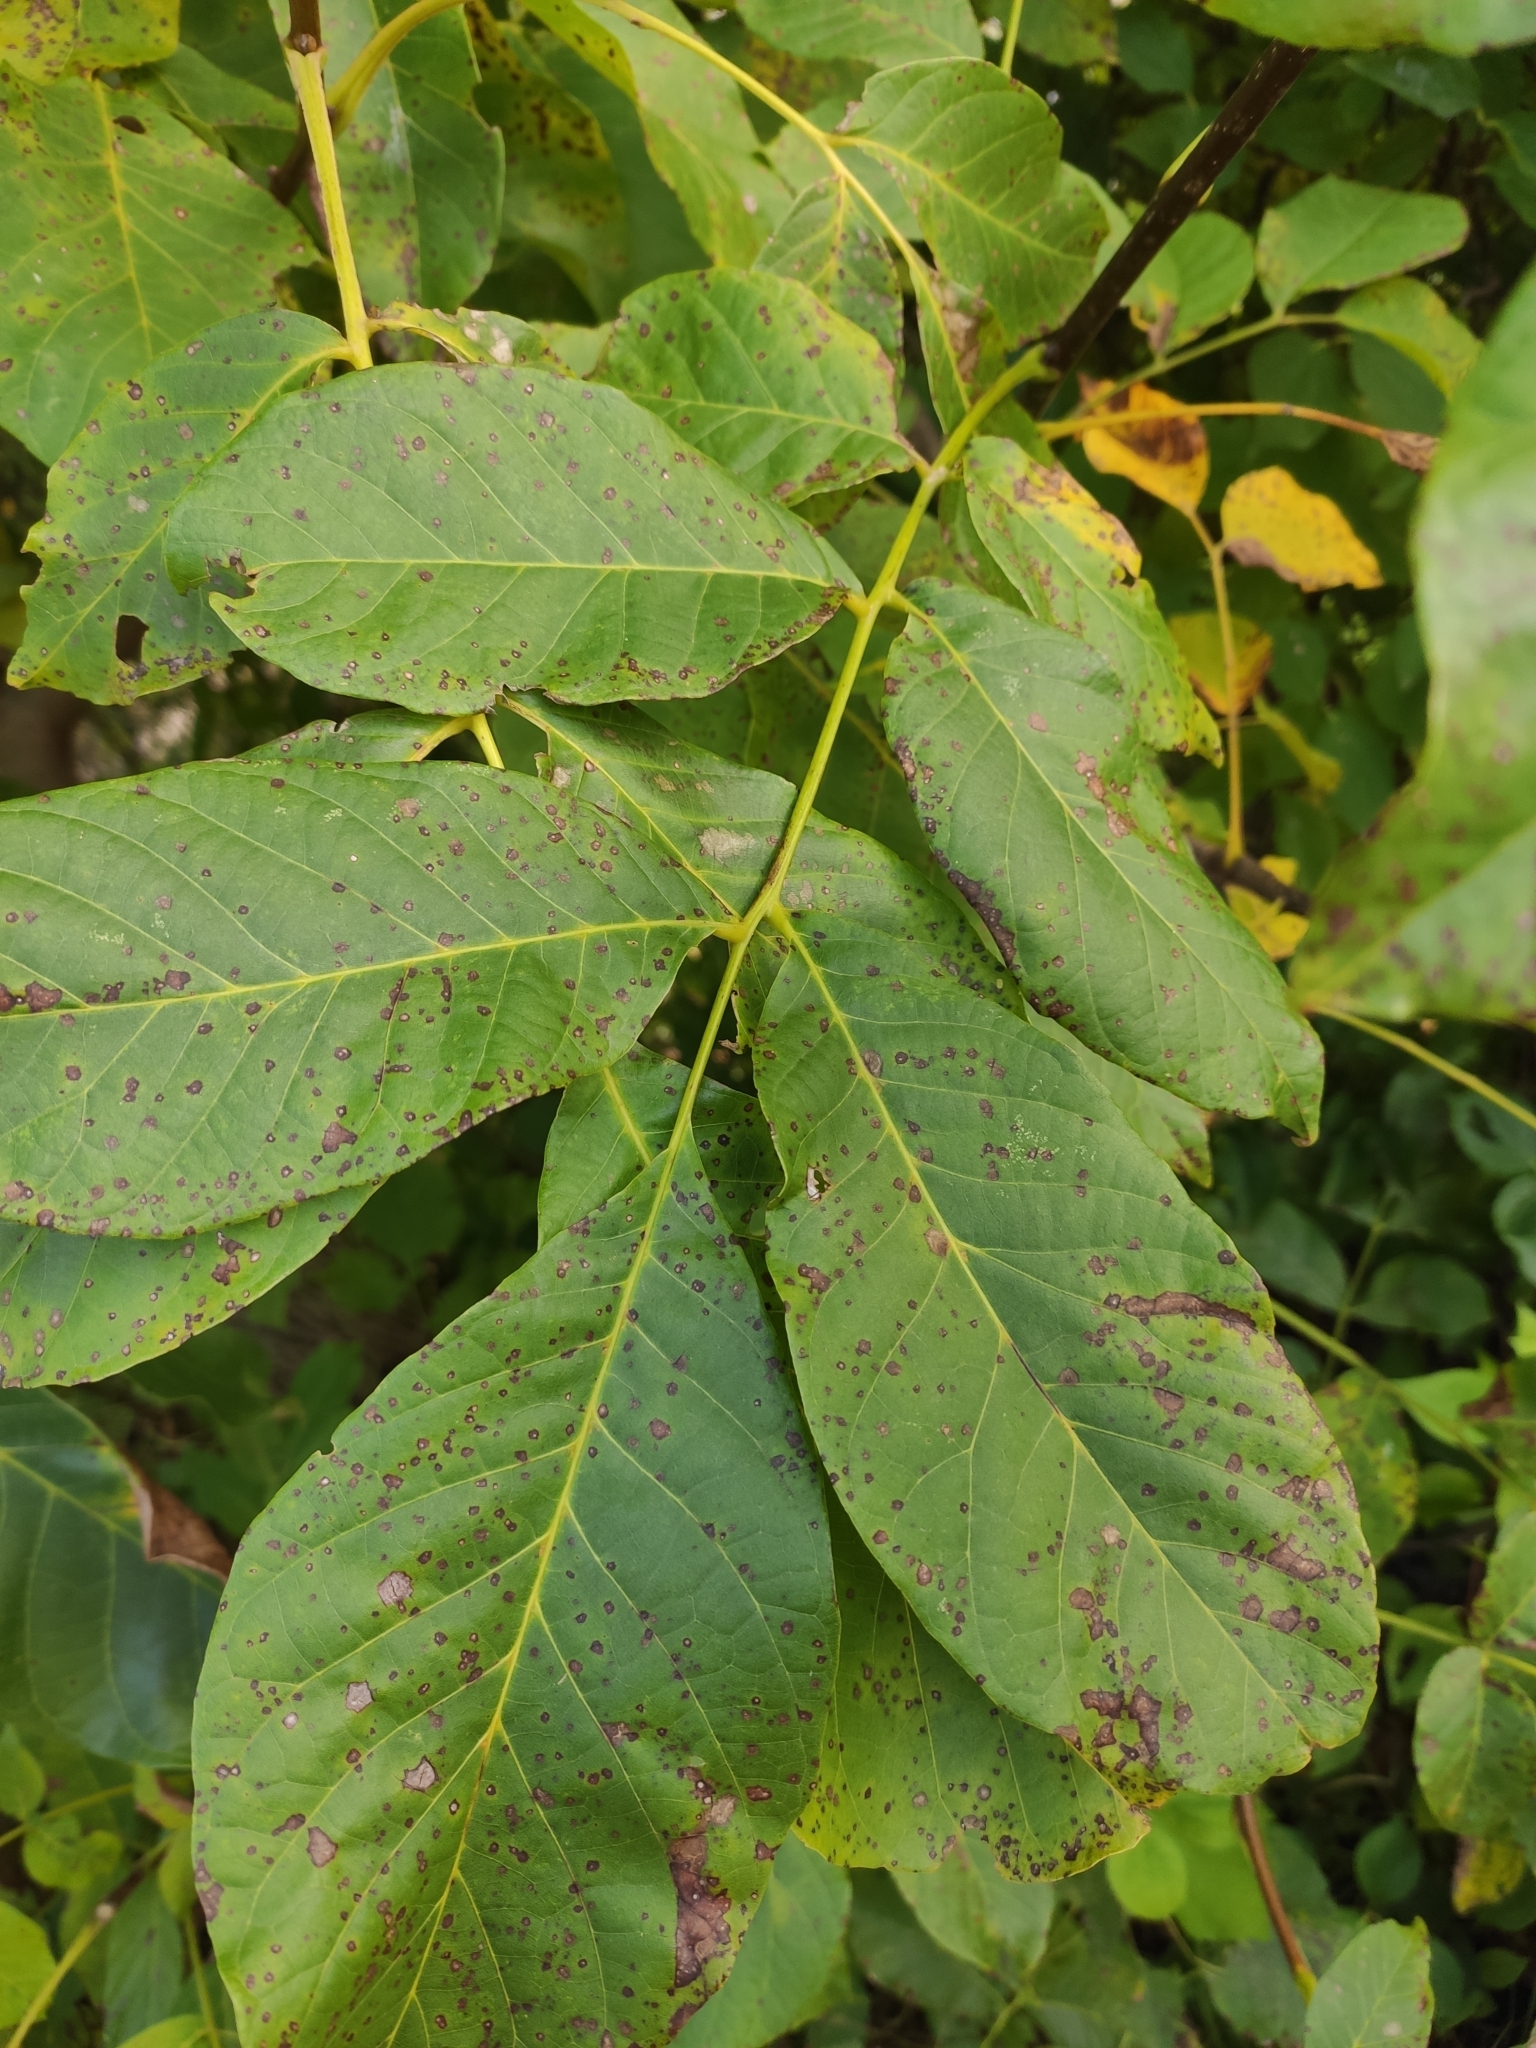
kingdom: Plantae
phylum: Tracheophyta
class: Magnoliopsida
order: Fagales
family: Juglandaceae
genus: Juglans
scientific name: Juglans regia
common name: Walnut
